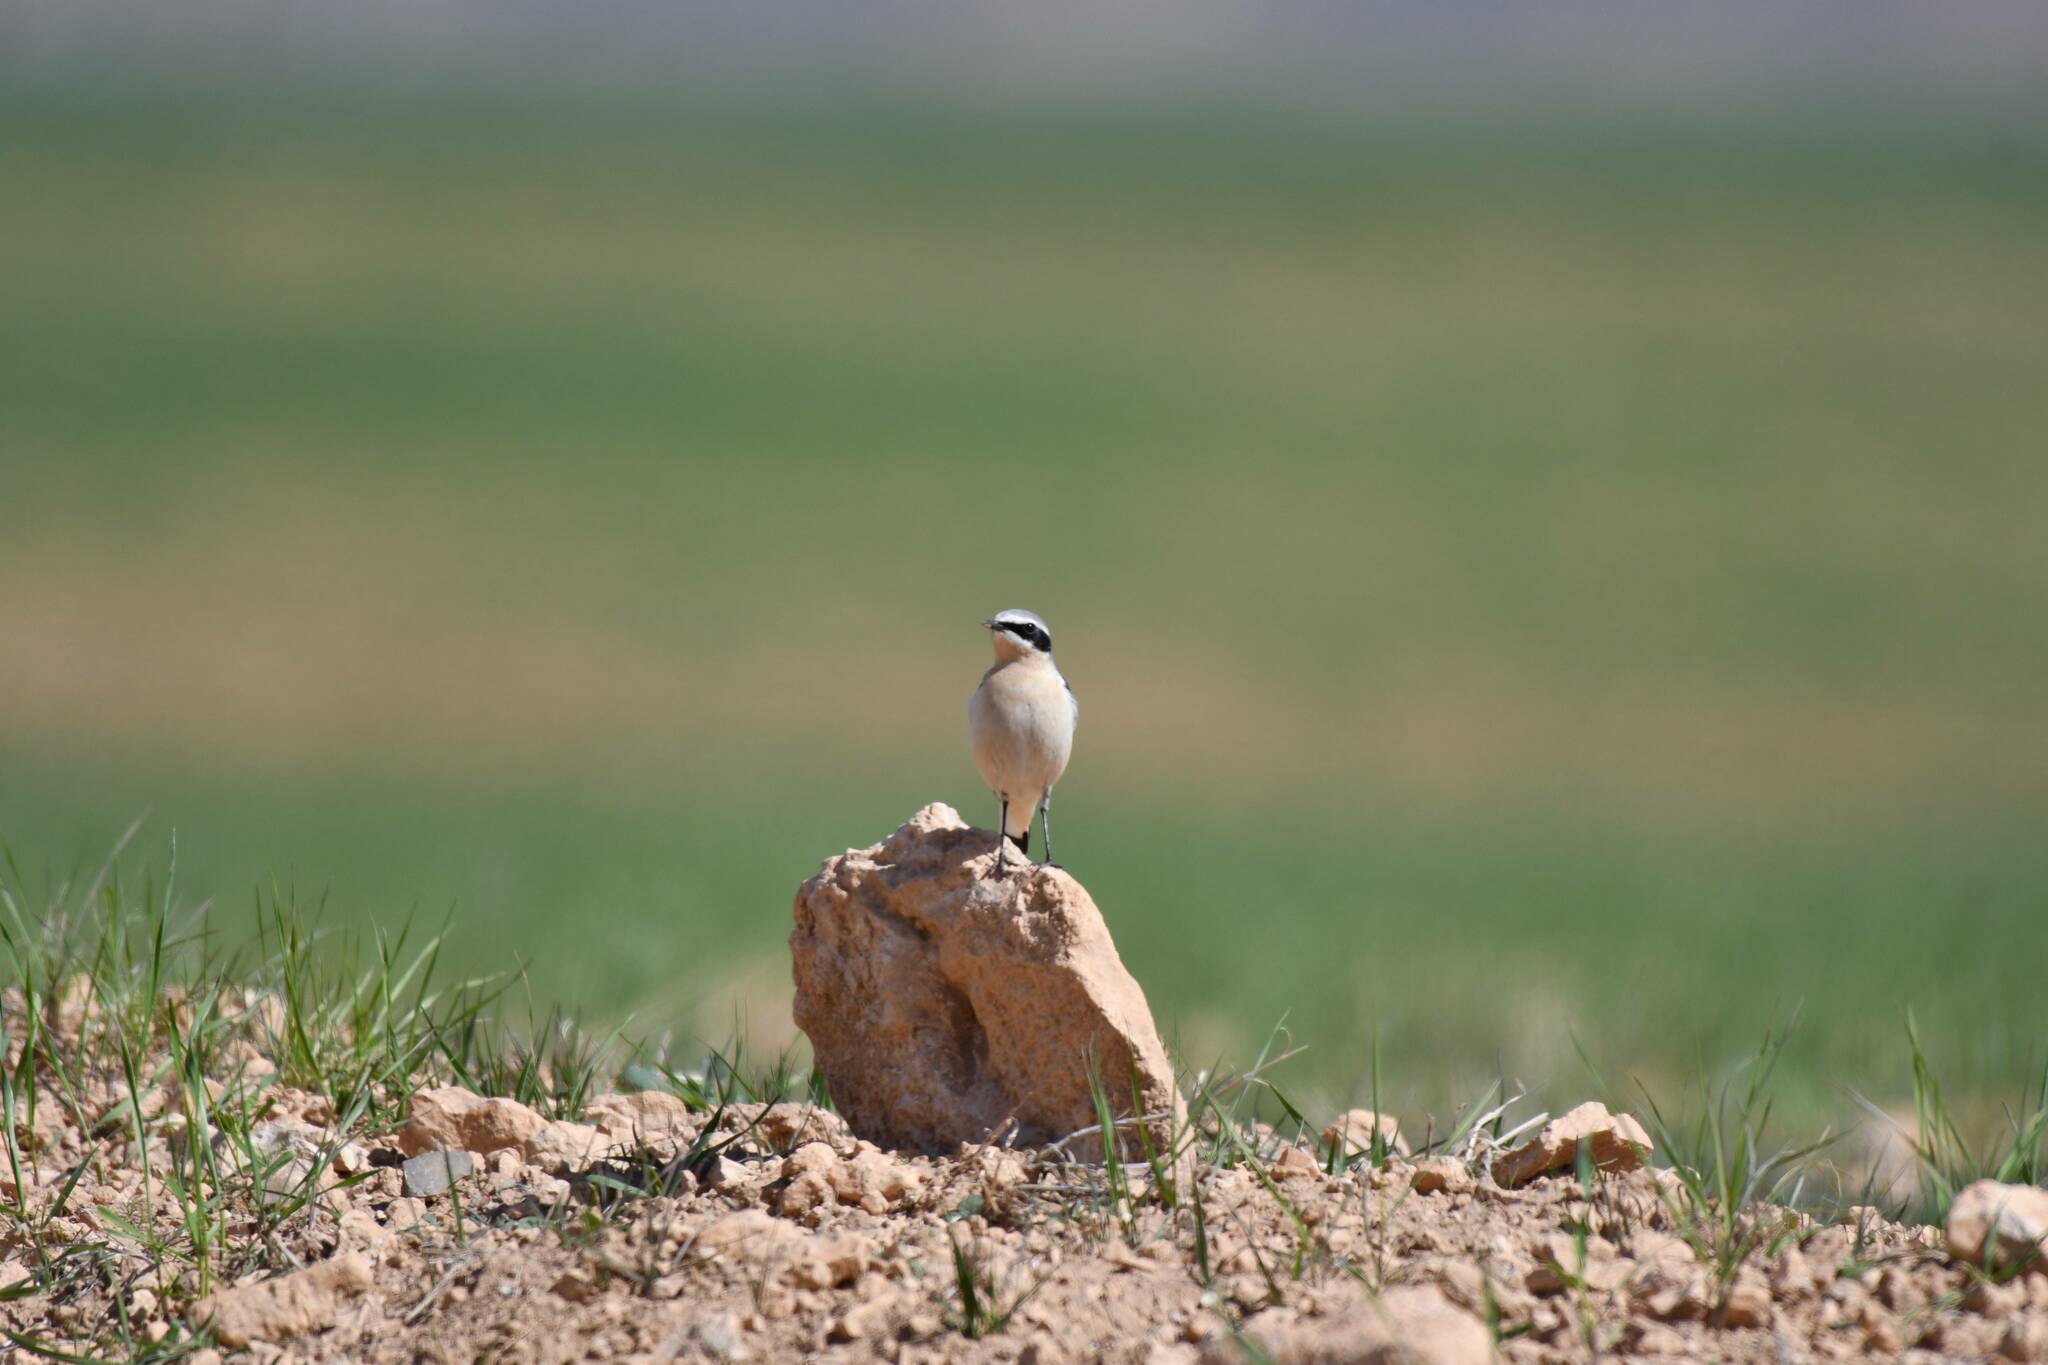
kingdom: Animalia
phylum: Chordata
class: Aves
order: Passeriformes
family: Muscicapidae
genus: Oenanthe
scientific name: Oenanthe oenanthe
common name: Northern wheatear
